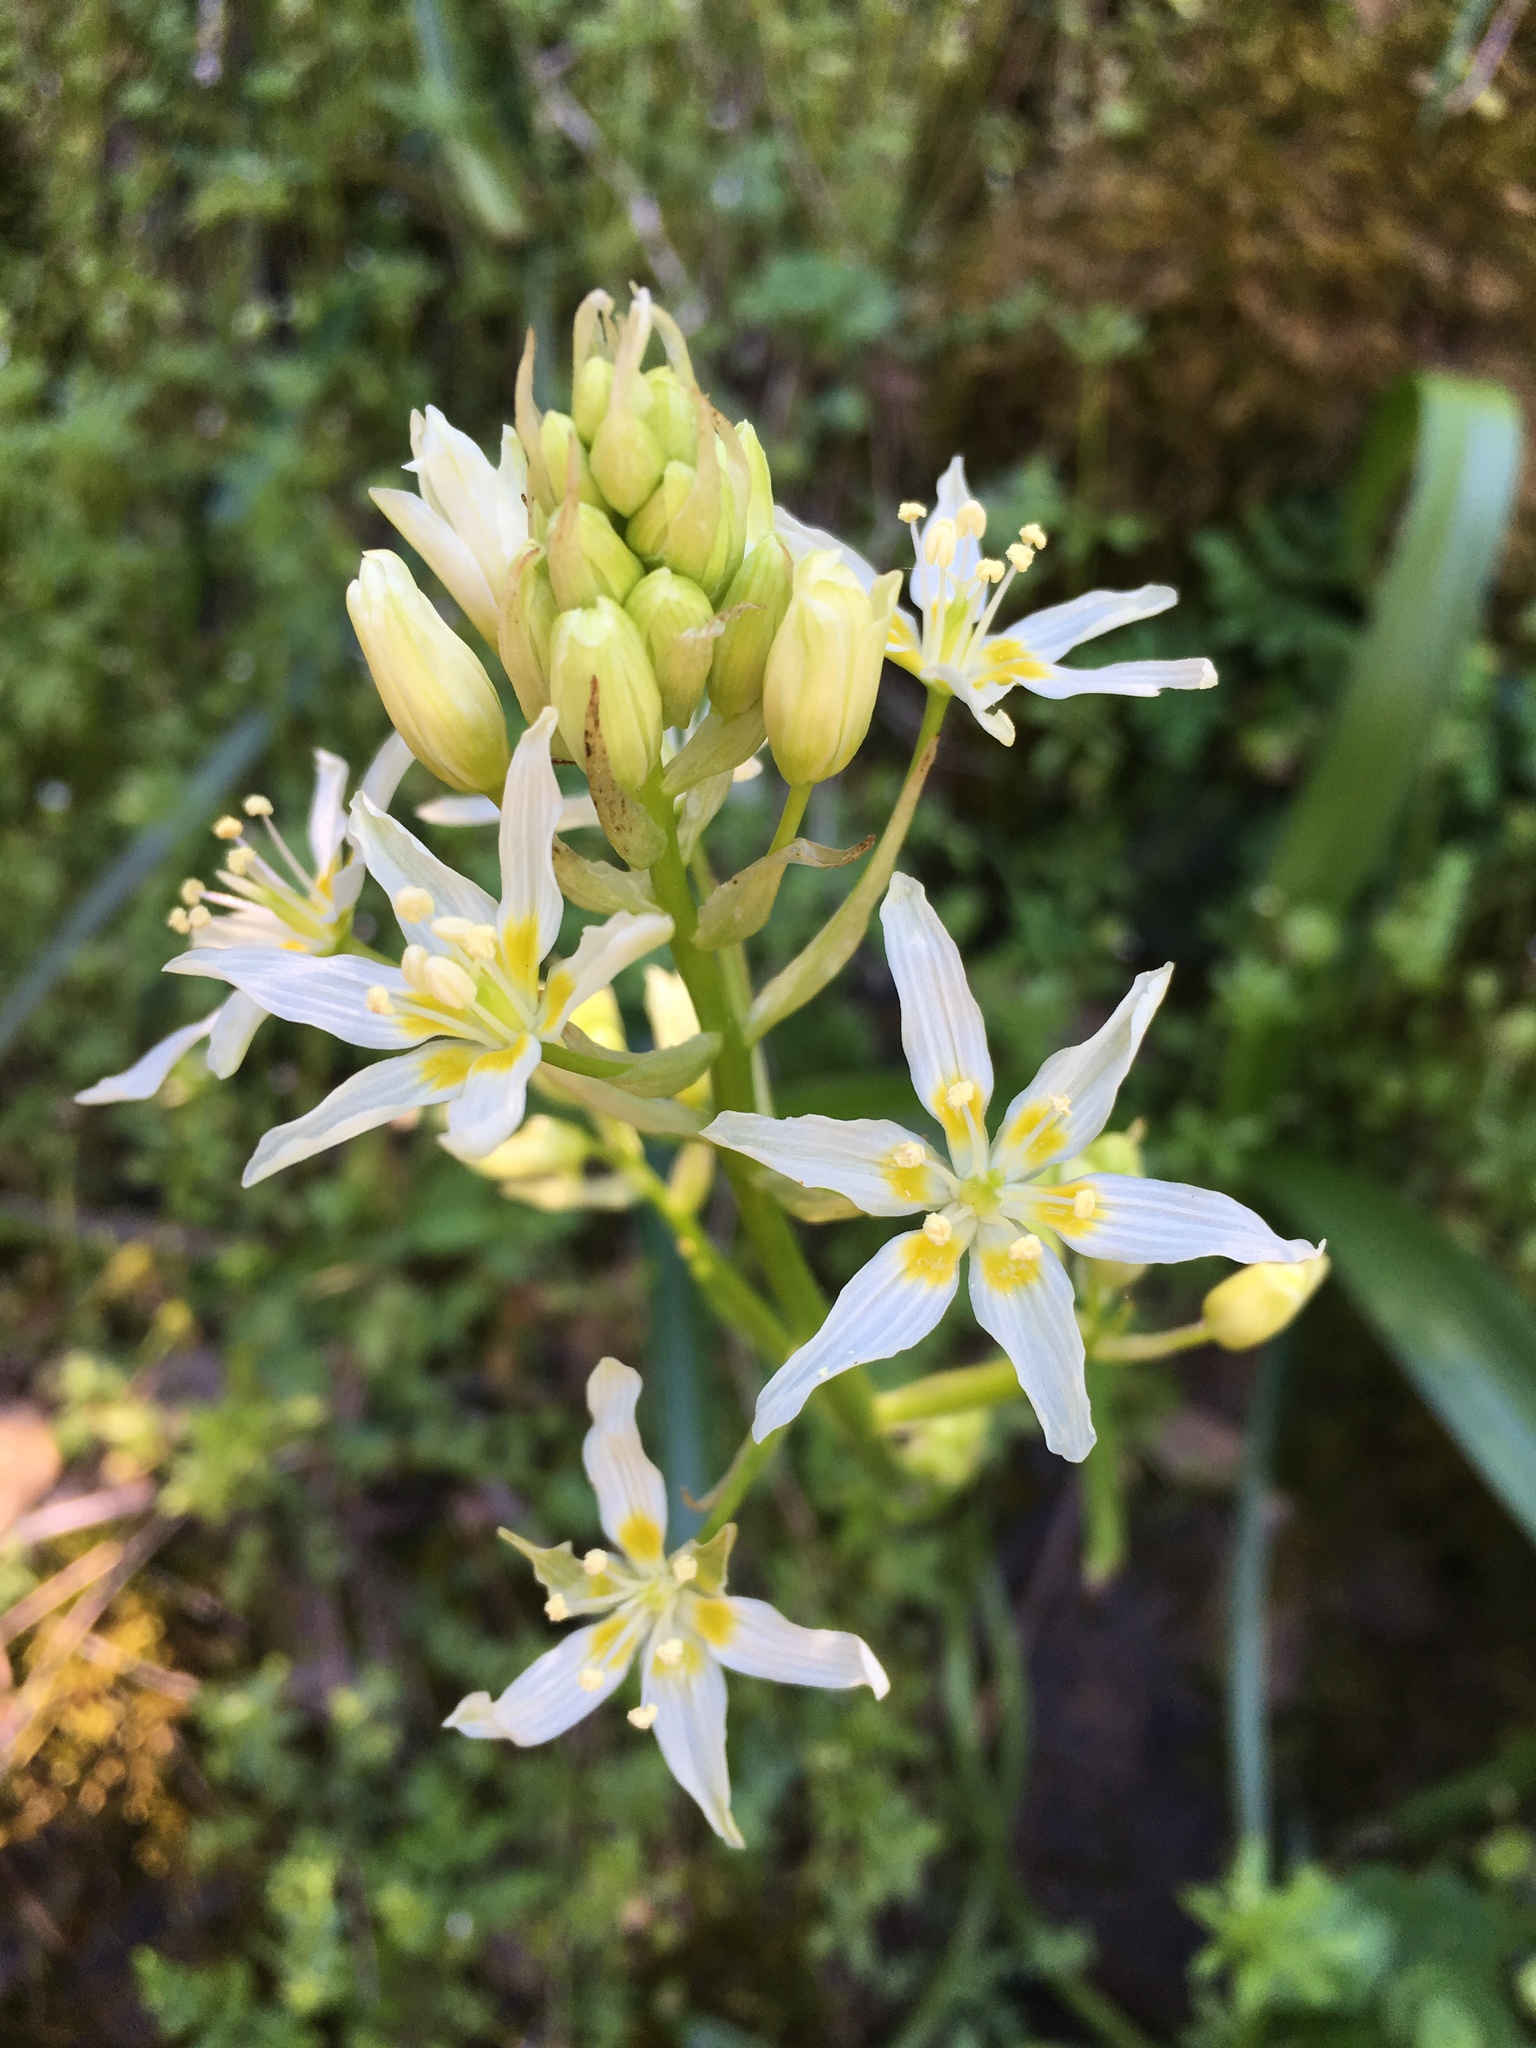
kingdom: Plantae
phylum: Tracheophyta
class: Liliopsida
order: Liliales
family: Melanthiaceae
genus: Toxicoscordion
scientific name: Toxicoscordion fremontii
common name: Fremont's death camas
